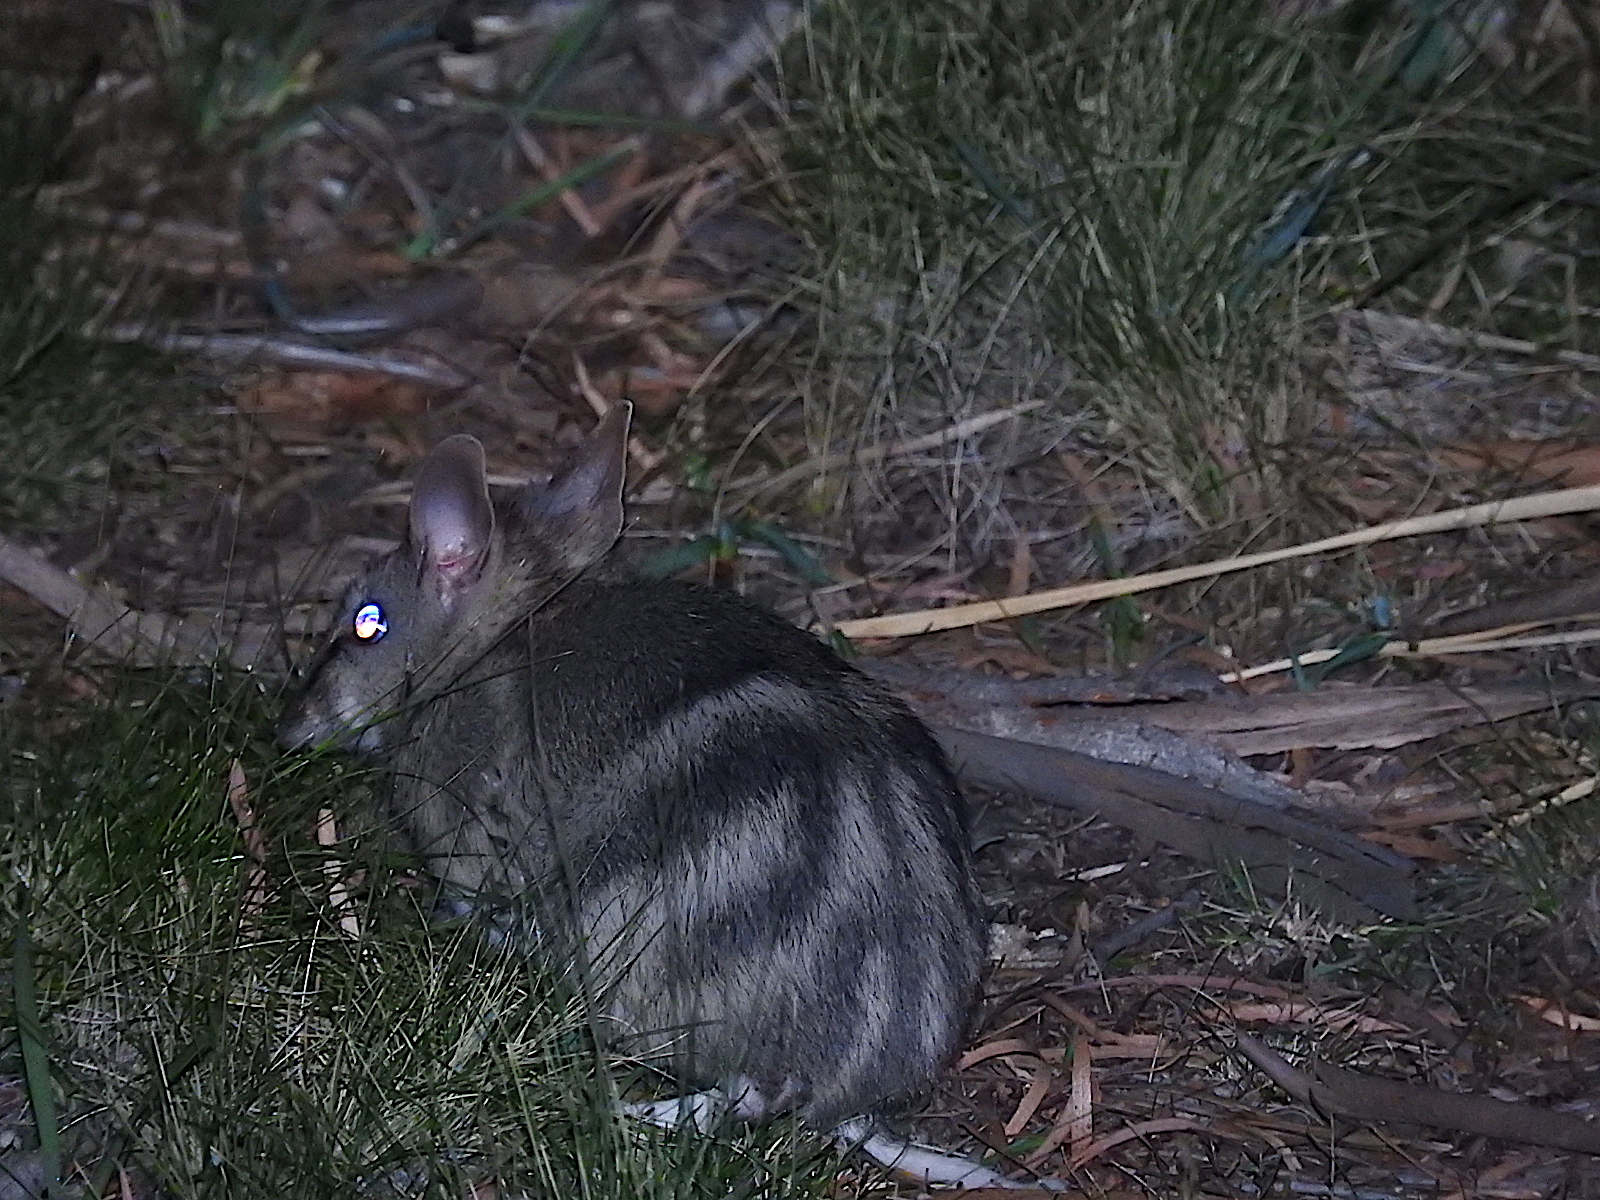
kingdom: Animalia
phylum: Chordata
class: Mammalia
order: Peramelemorphia
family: Peramelidae
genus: Perameles
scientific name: Perameles gunnii
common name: Eastern barred bandicoot
